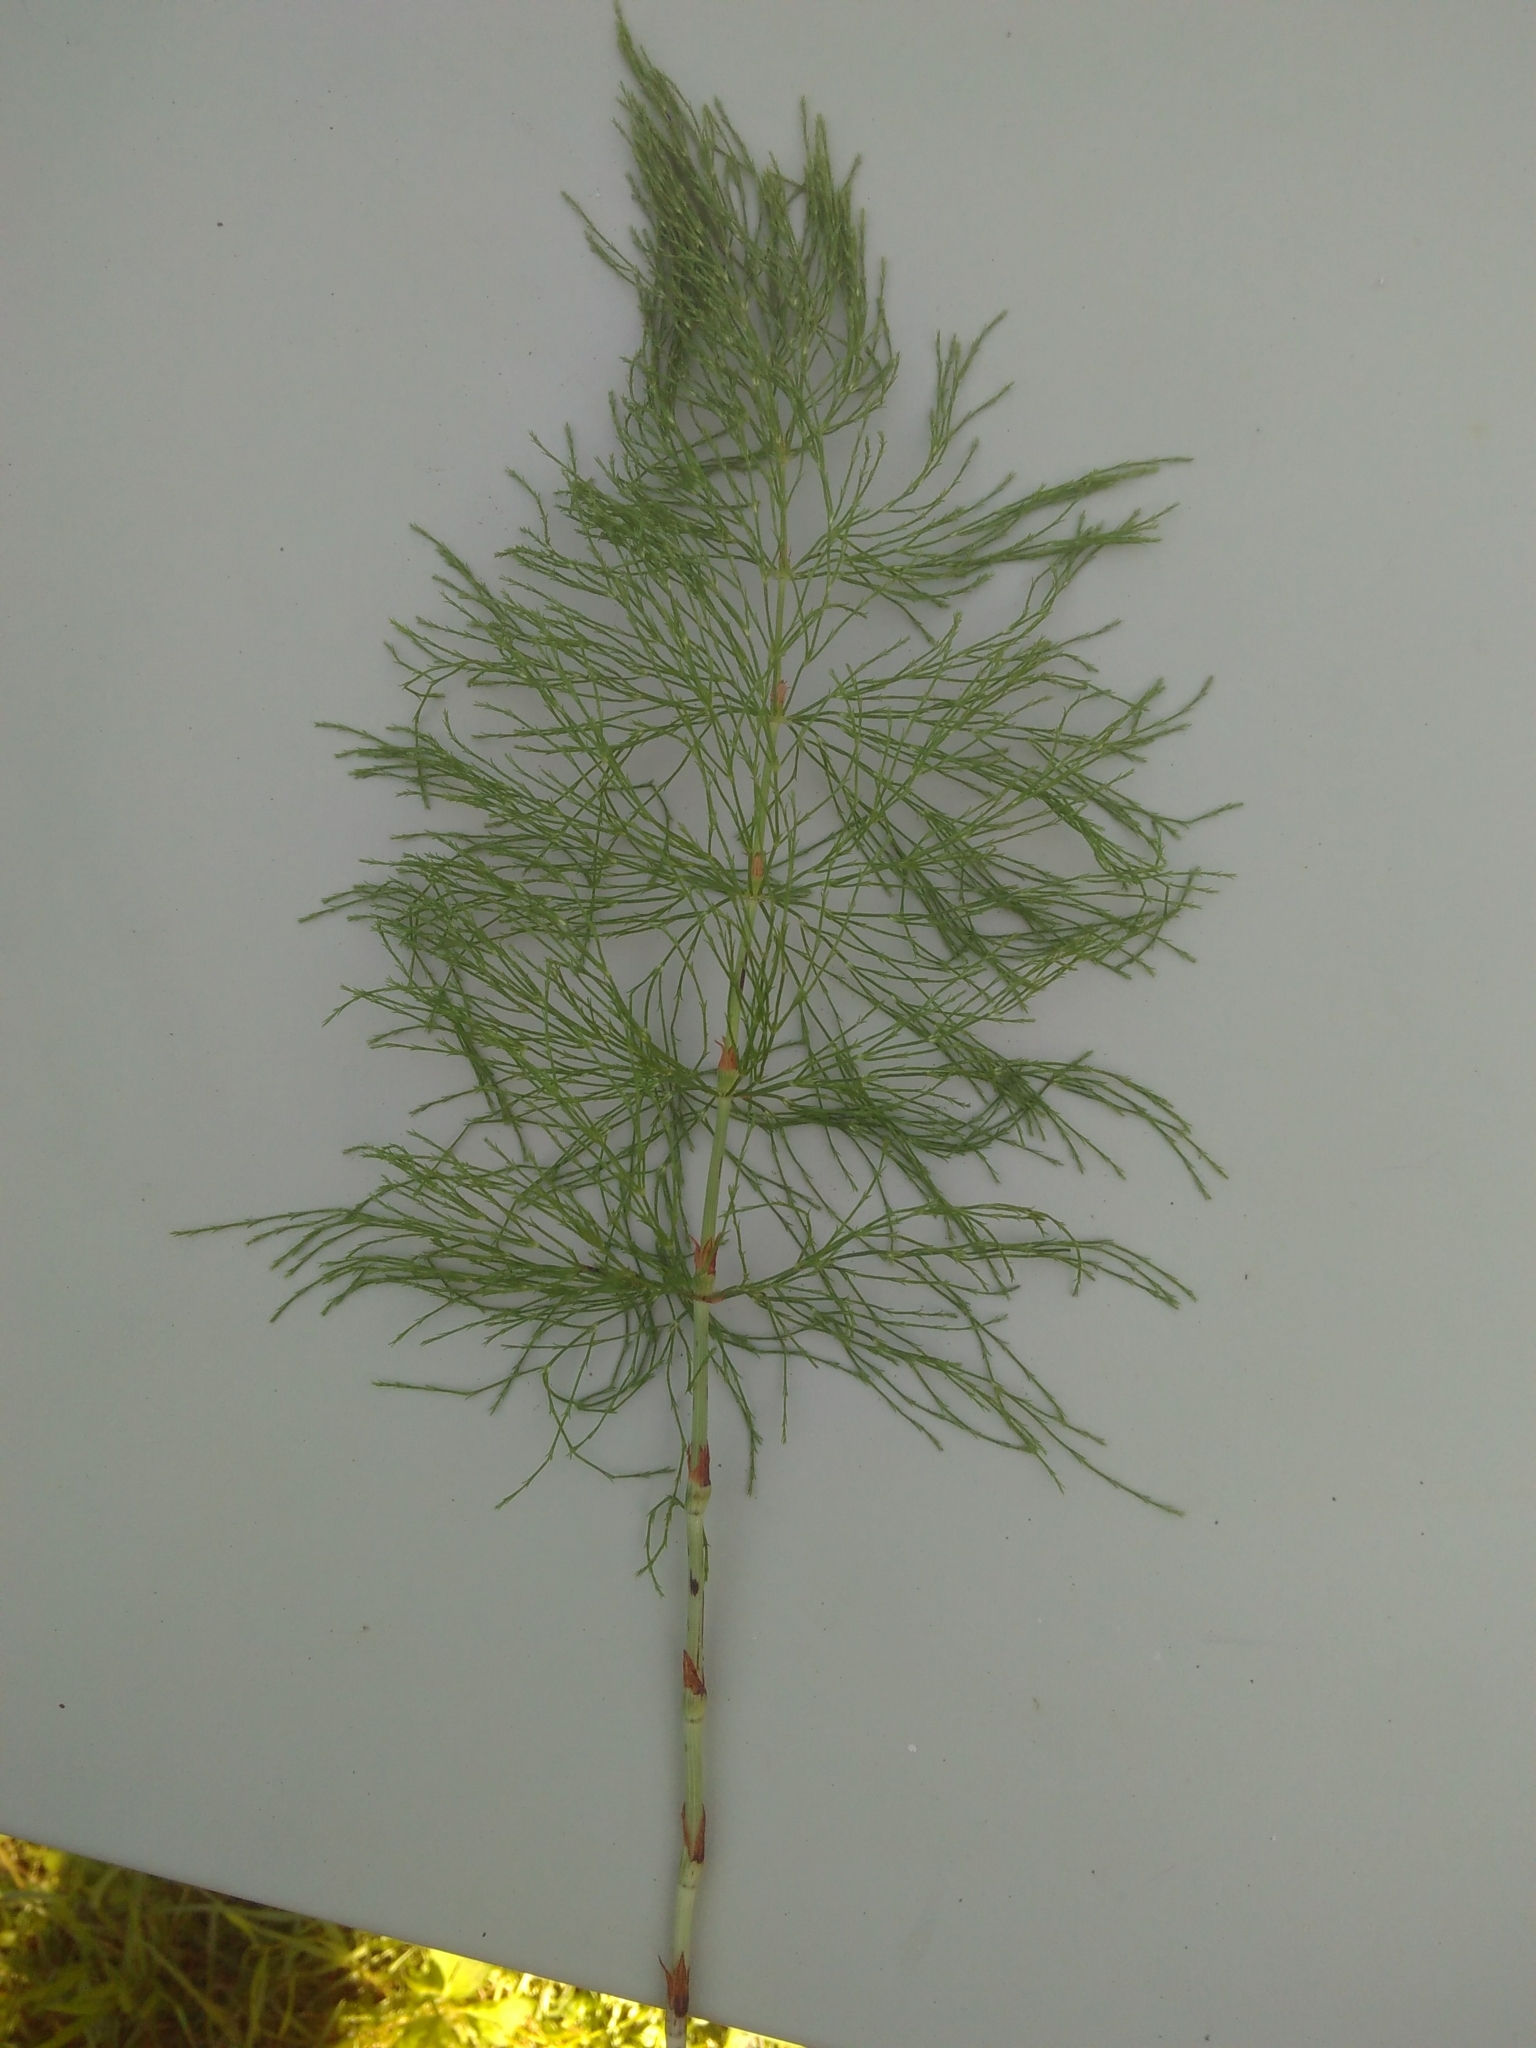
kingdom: Plantae
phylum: Tracheophyta
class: Polypodiopsida
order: Equisetales
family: Equisetaceae
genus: Equisetum
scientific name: Equisetum sylvaticum
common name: Wood horsetail
